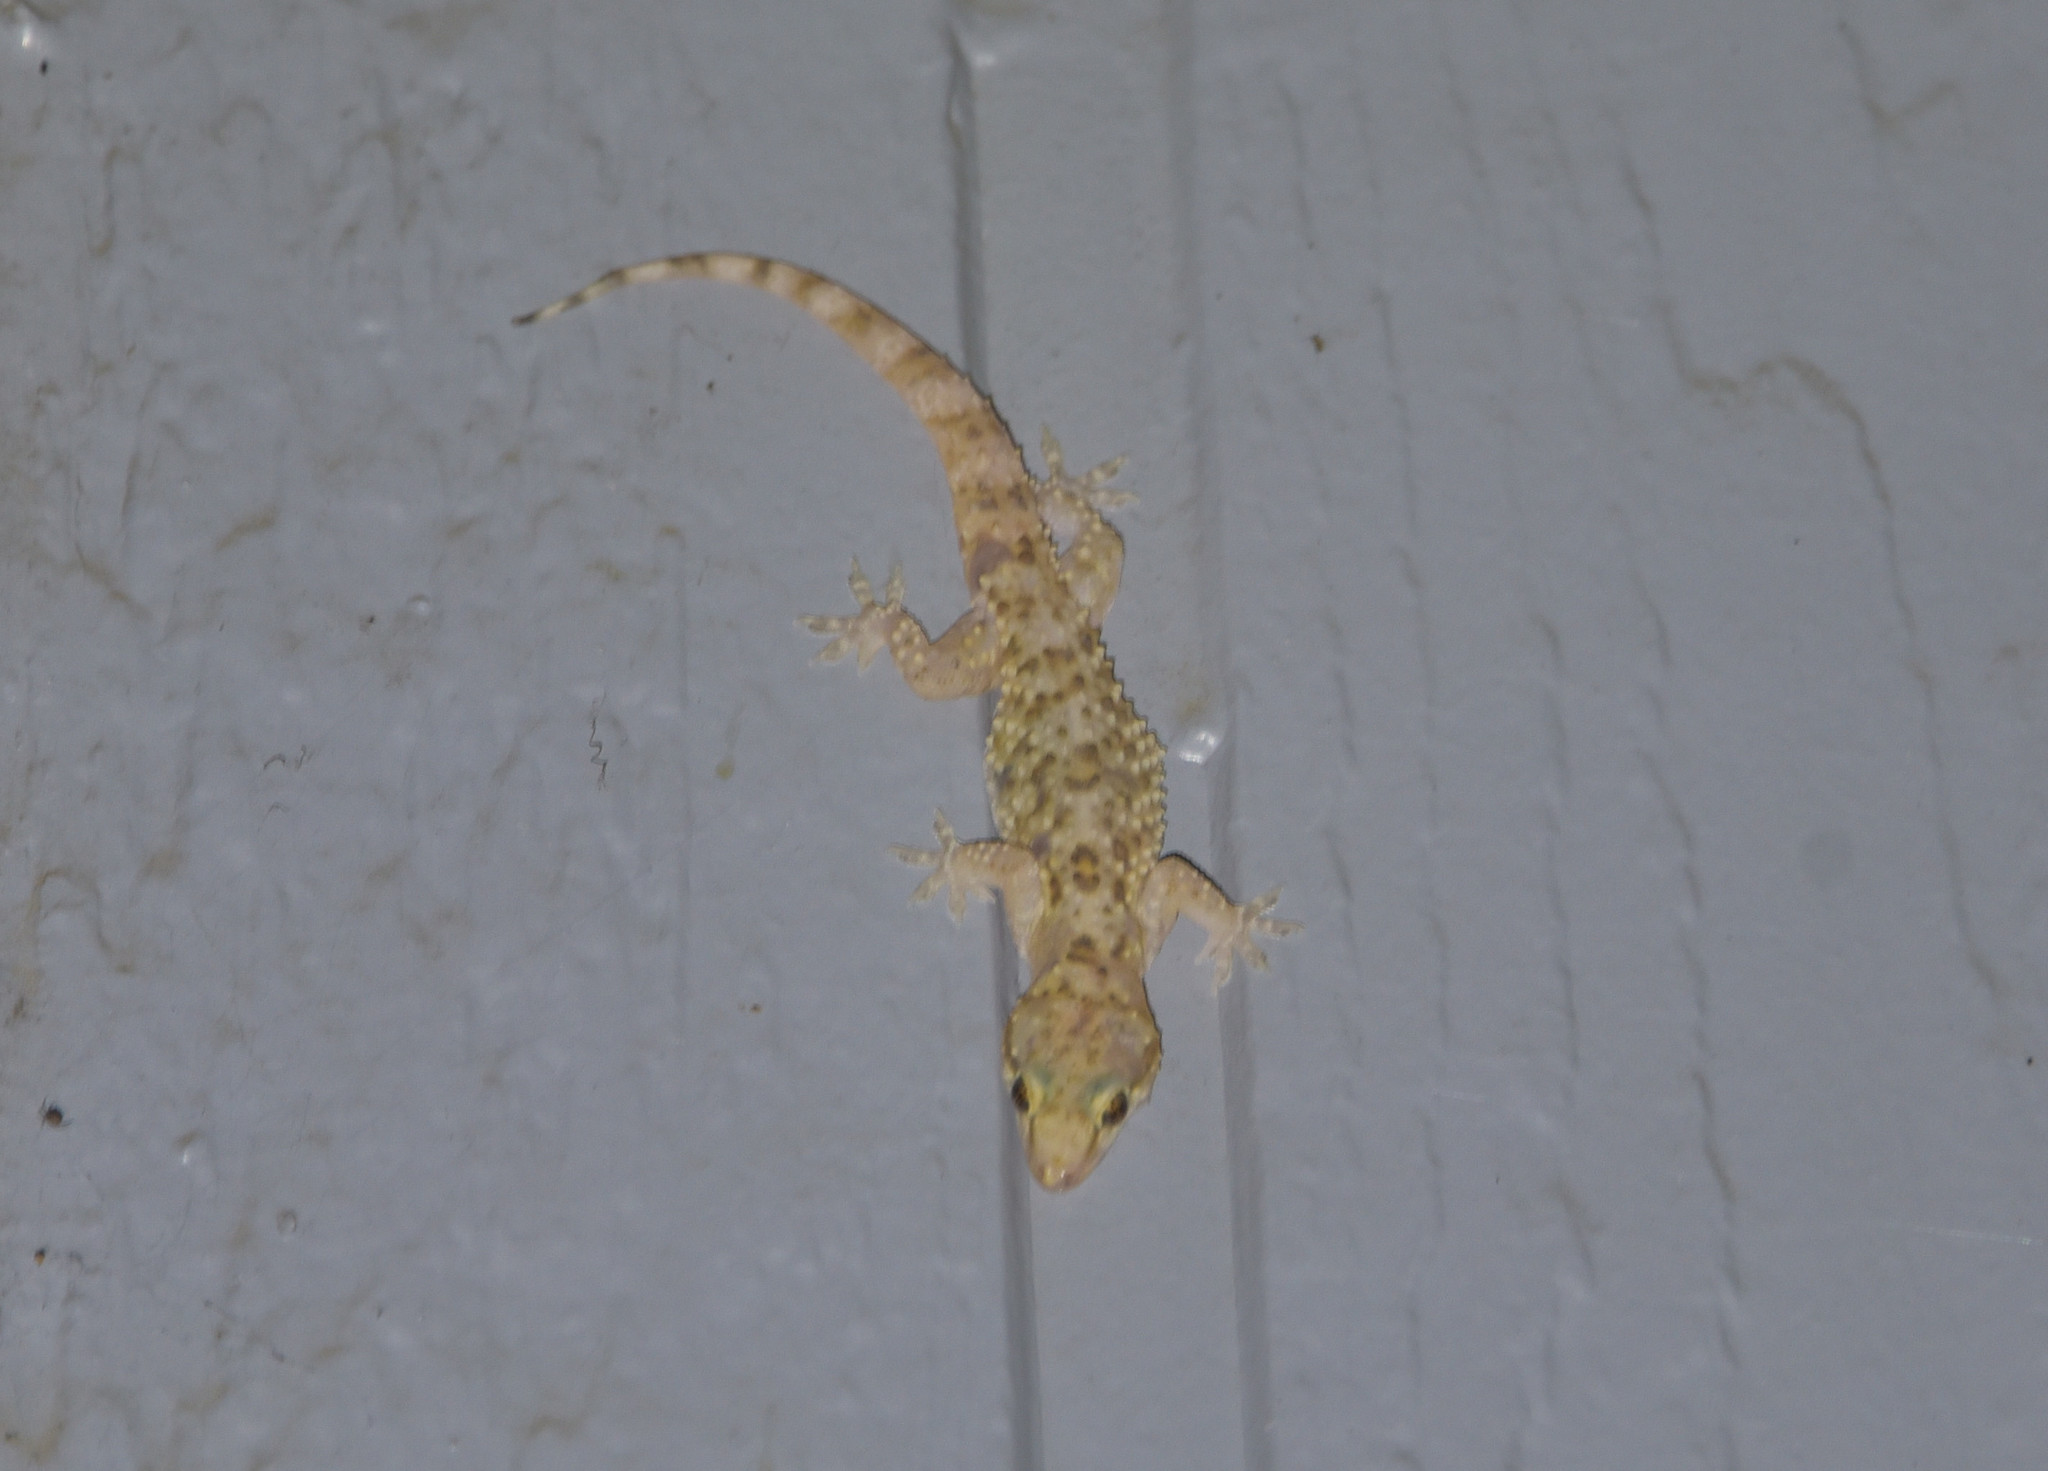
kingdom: Animalia
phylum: Chordata
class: Squamata
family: Gekkonidae
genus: Hemidactylus
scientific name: Hemidactylus turcicus
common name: Turkish gecko
